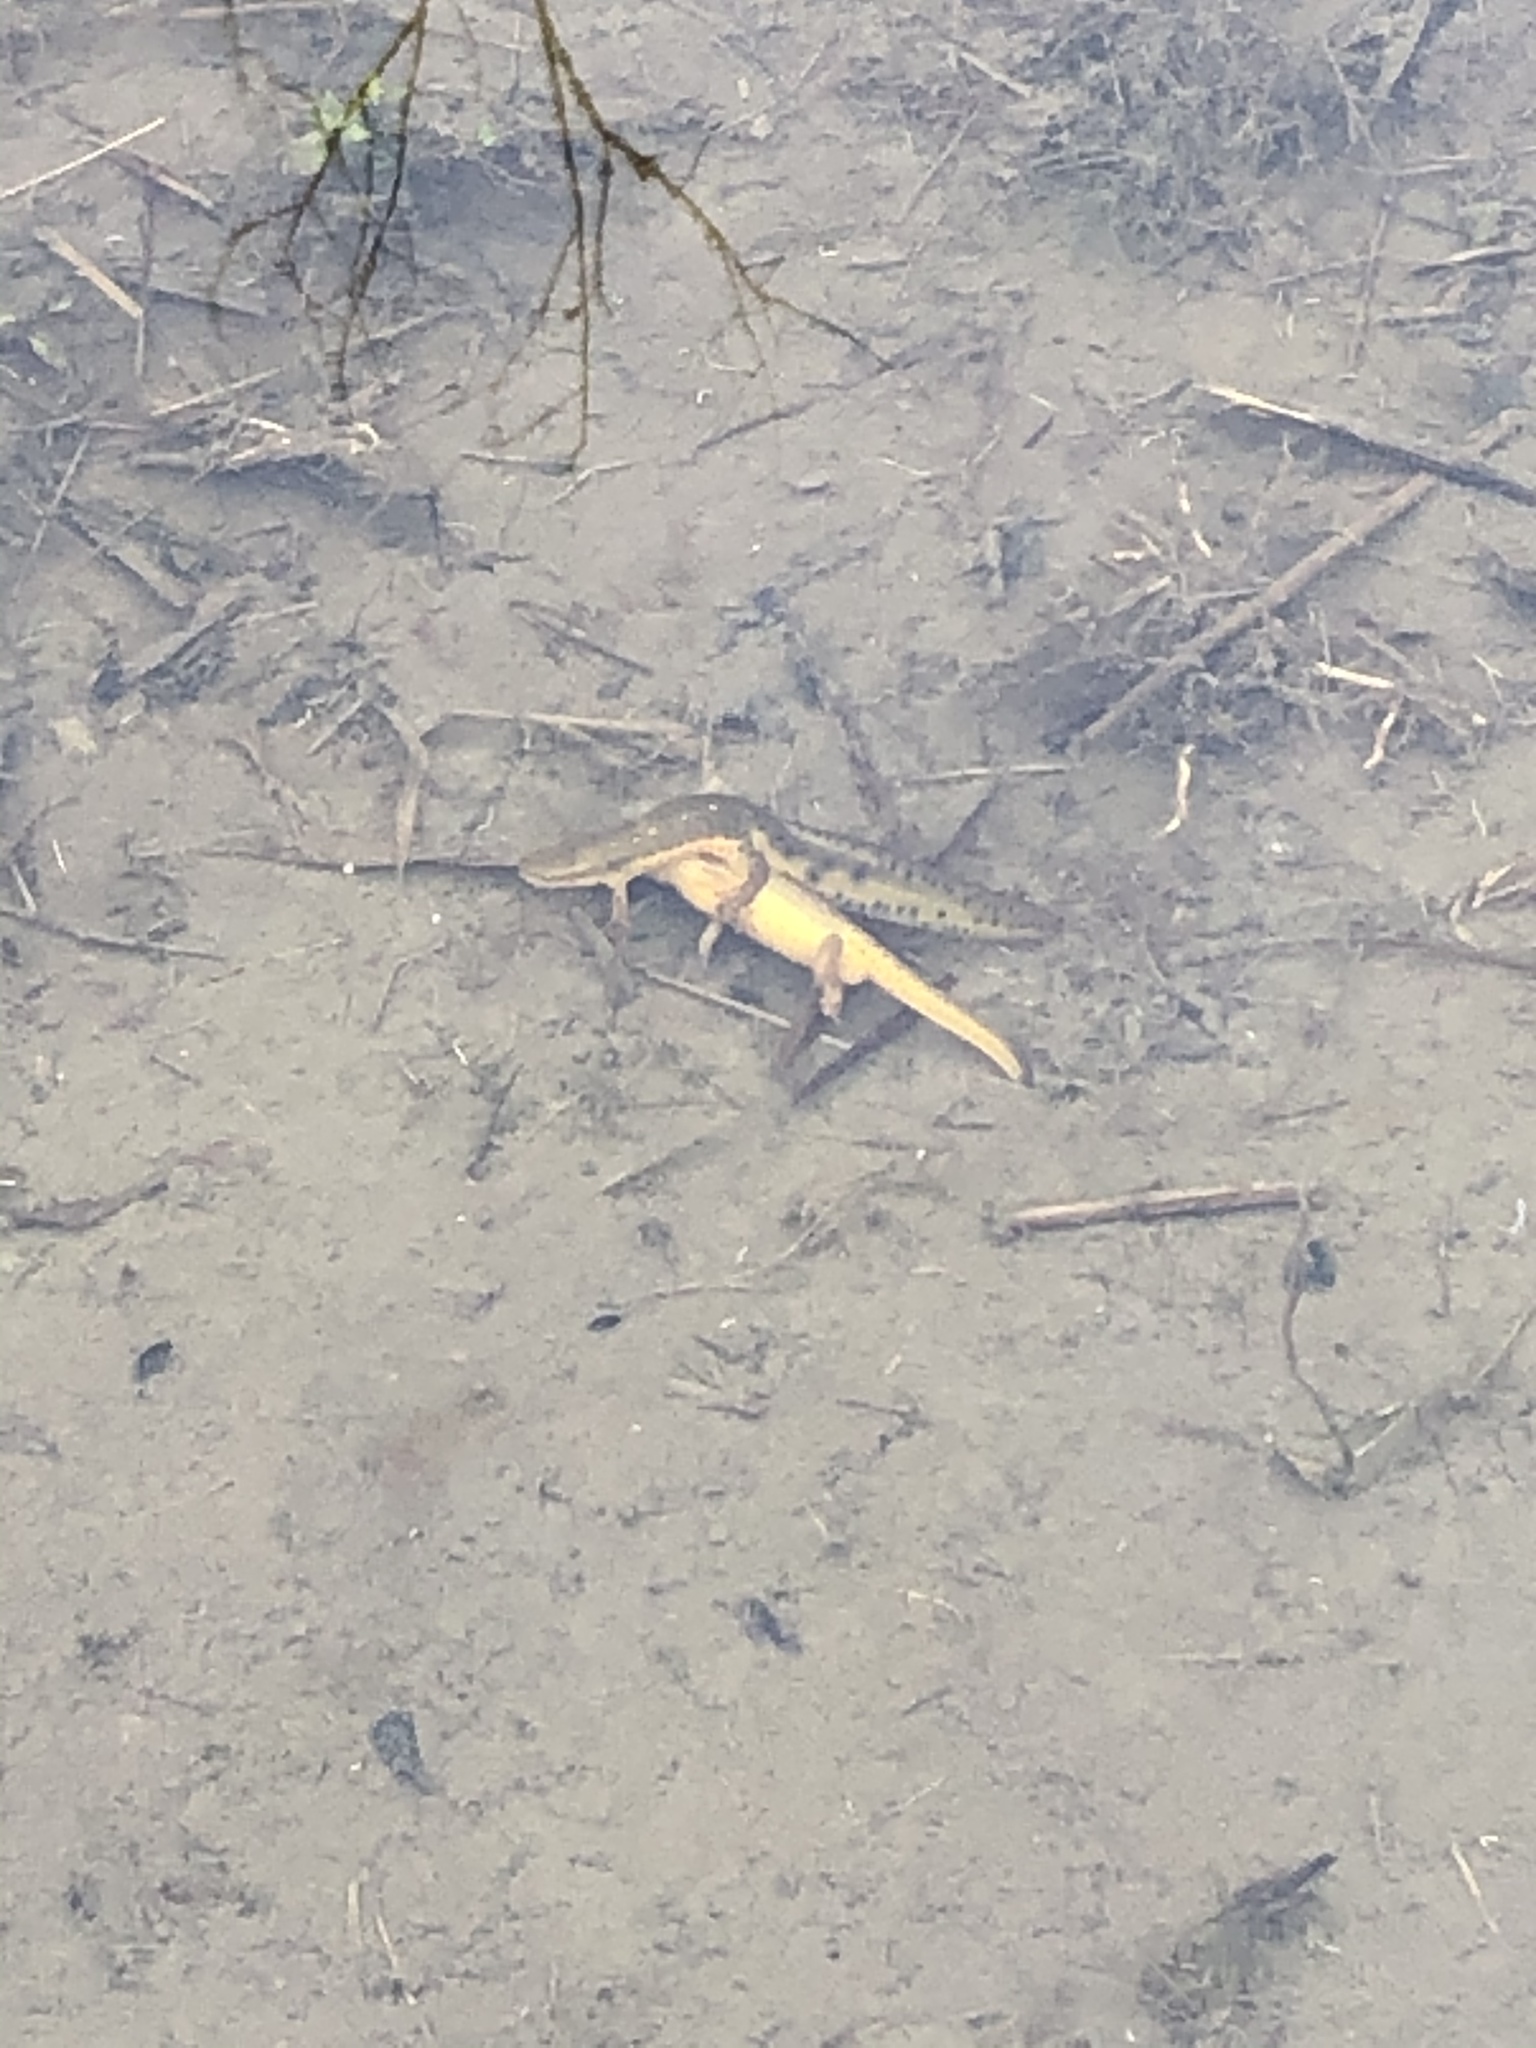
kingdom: Animalia
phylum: Chordata
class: Amphibia
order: Caudata
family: Salamandridae
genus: Notophthalmus
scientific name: Notophthalmus viridescens
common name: Eastern newt
